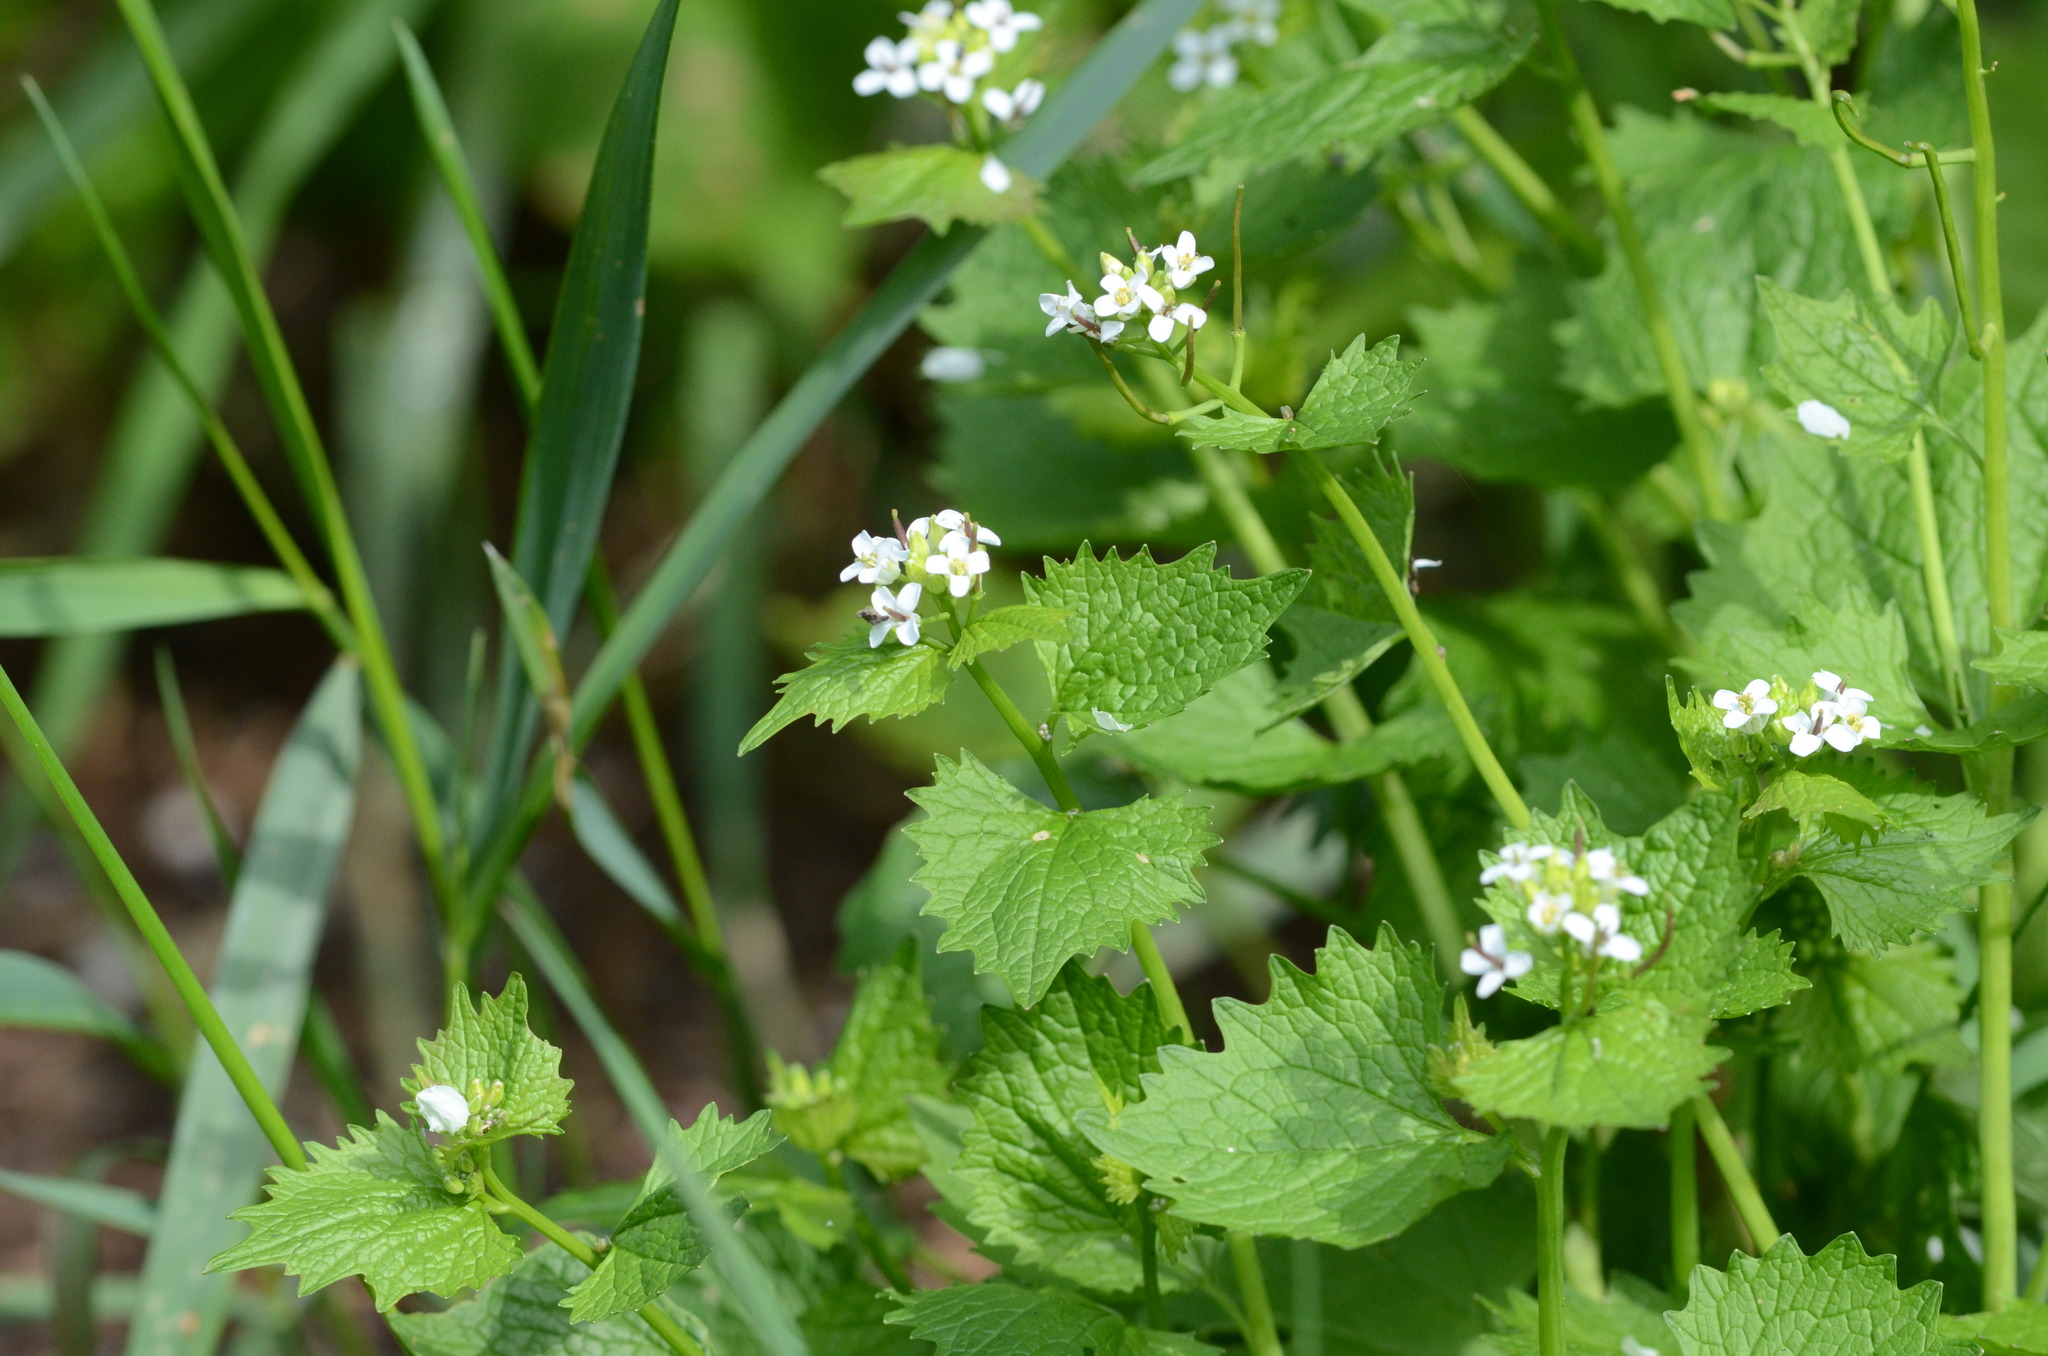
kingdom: Plantae
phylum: Tracheophyta
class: Magnoliopsida
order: Brassicales
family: Brassicaceae
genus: Alliaria
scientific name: Alliaria petiolata
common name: Garlic mustard
